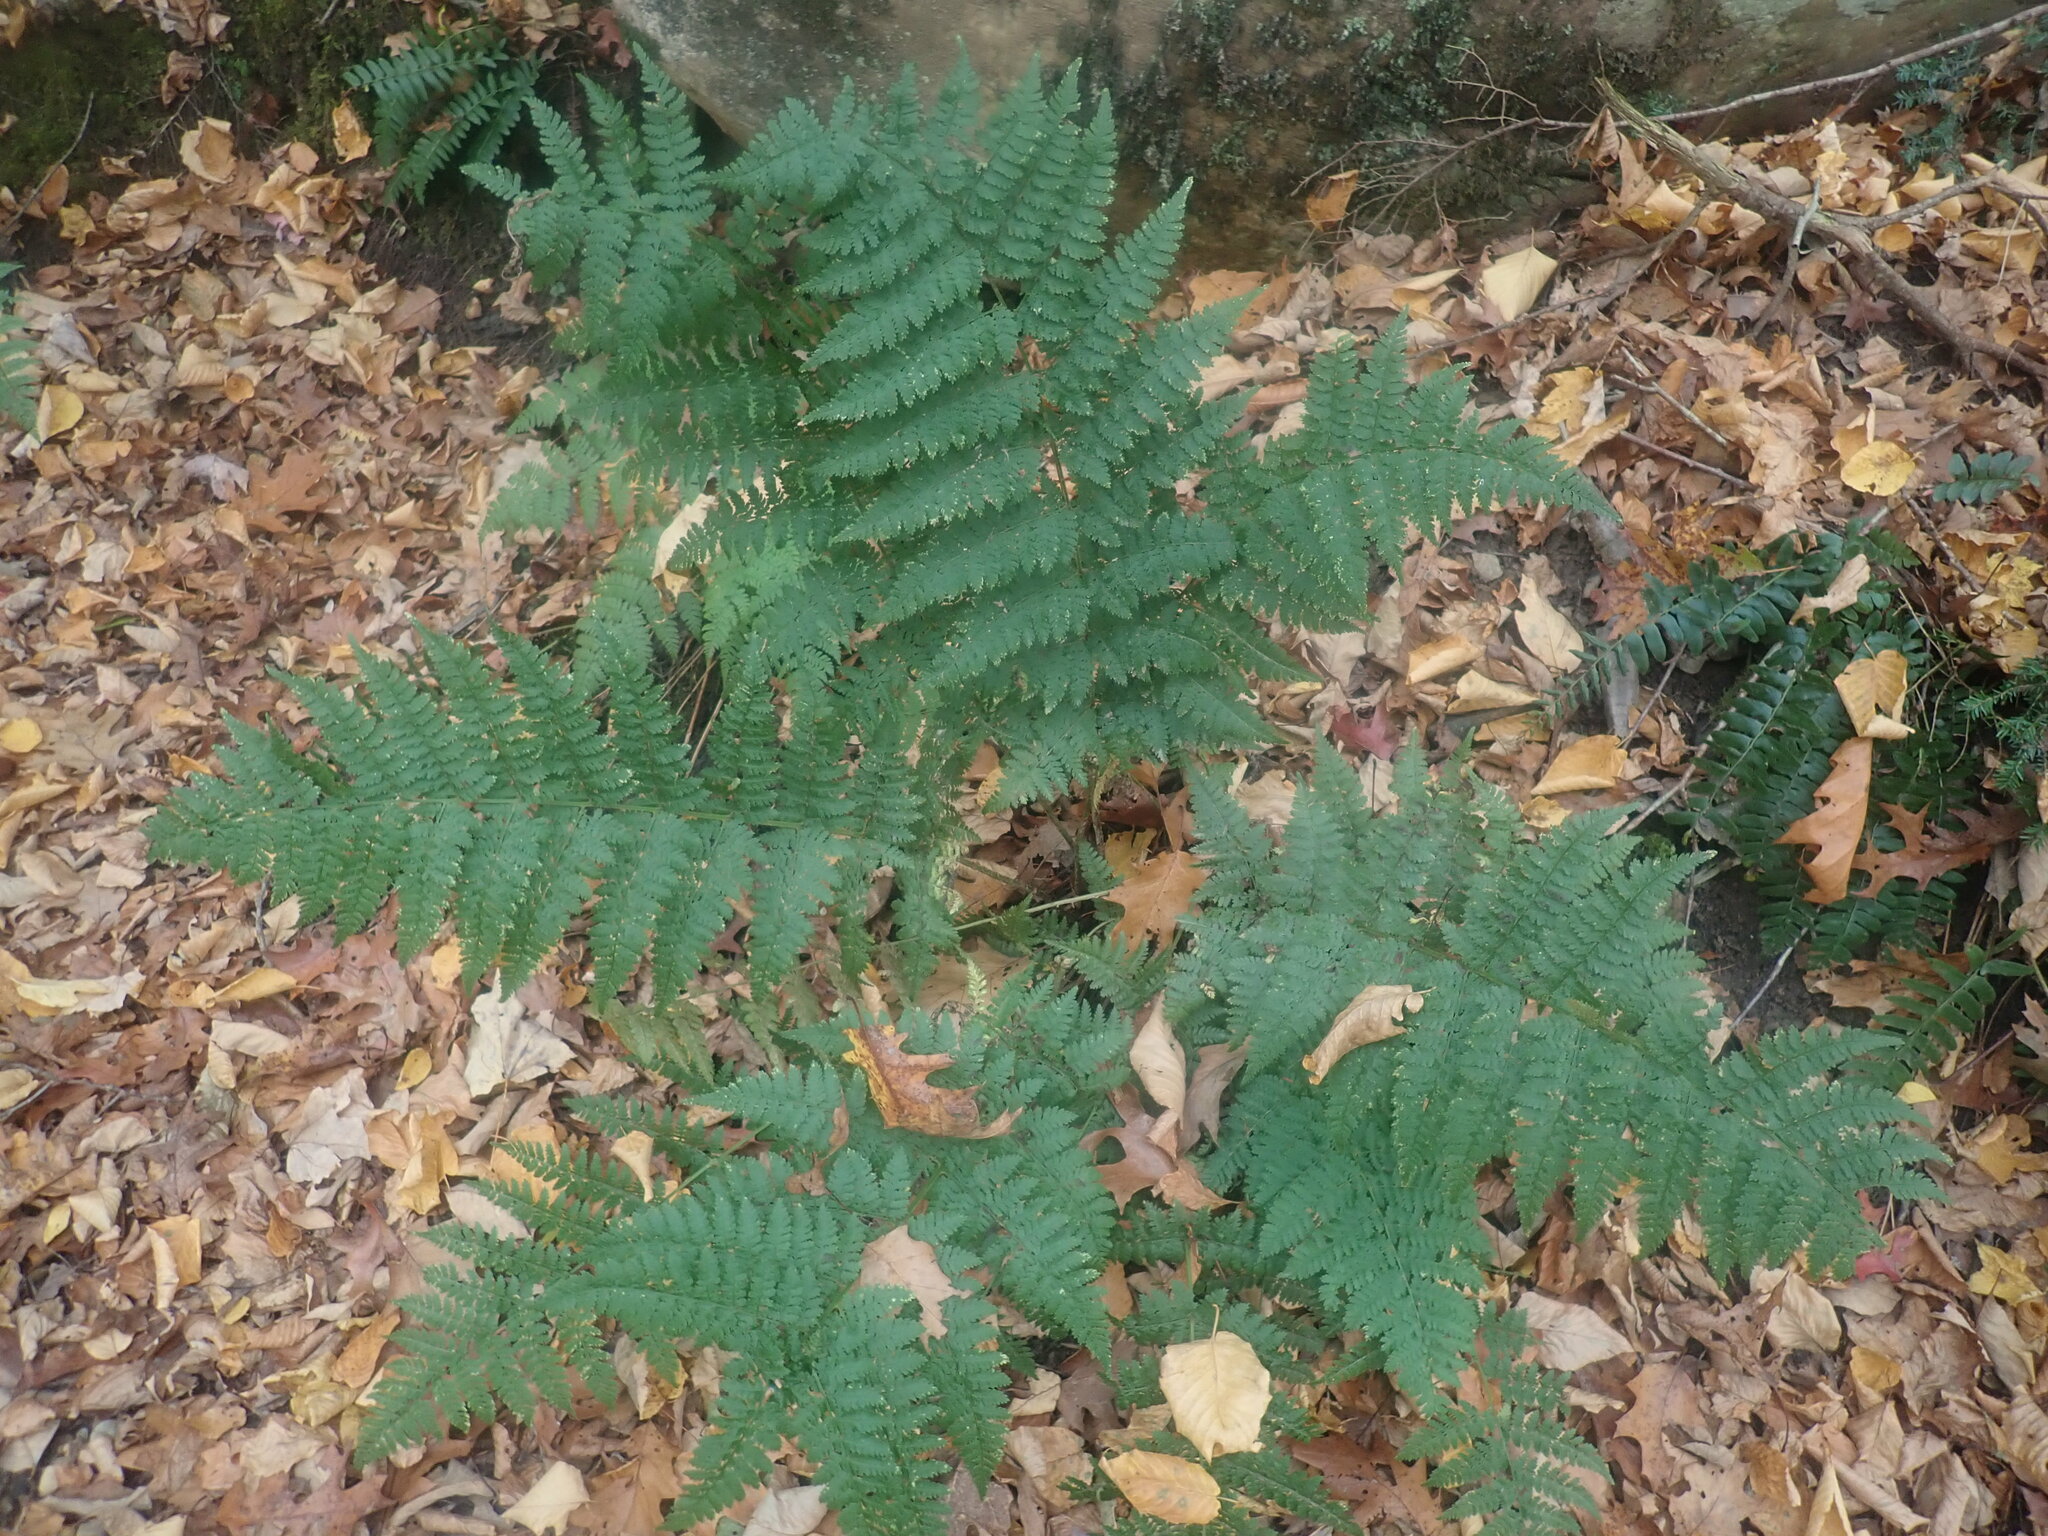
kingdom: Plantae
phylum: Tracheophyta
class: Polypodiopsida
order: Polypodiales
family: Dryopteridaceae
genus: Dryopteris
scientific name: Dryopteris intermedia
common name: Evergreen wood fern
